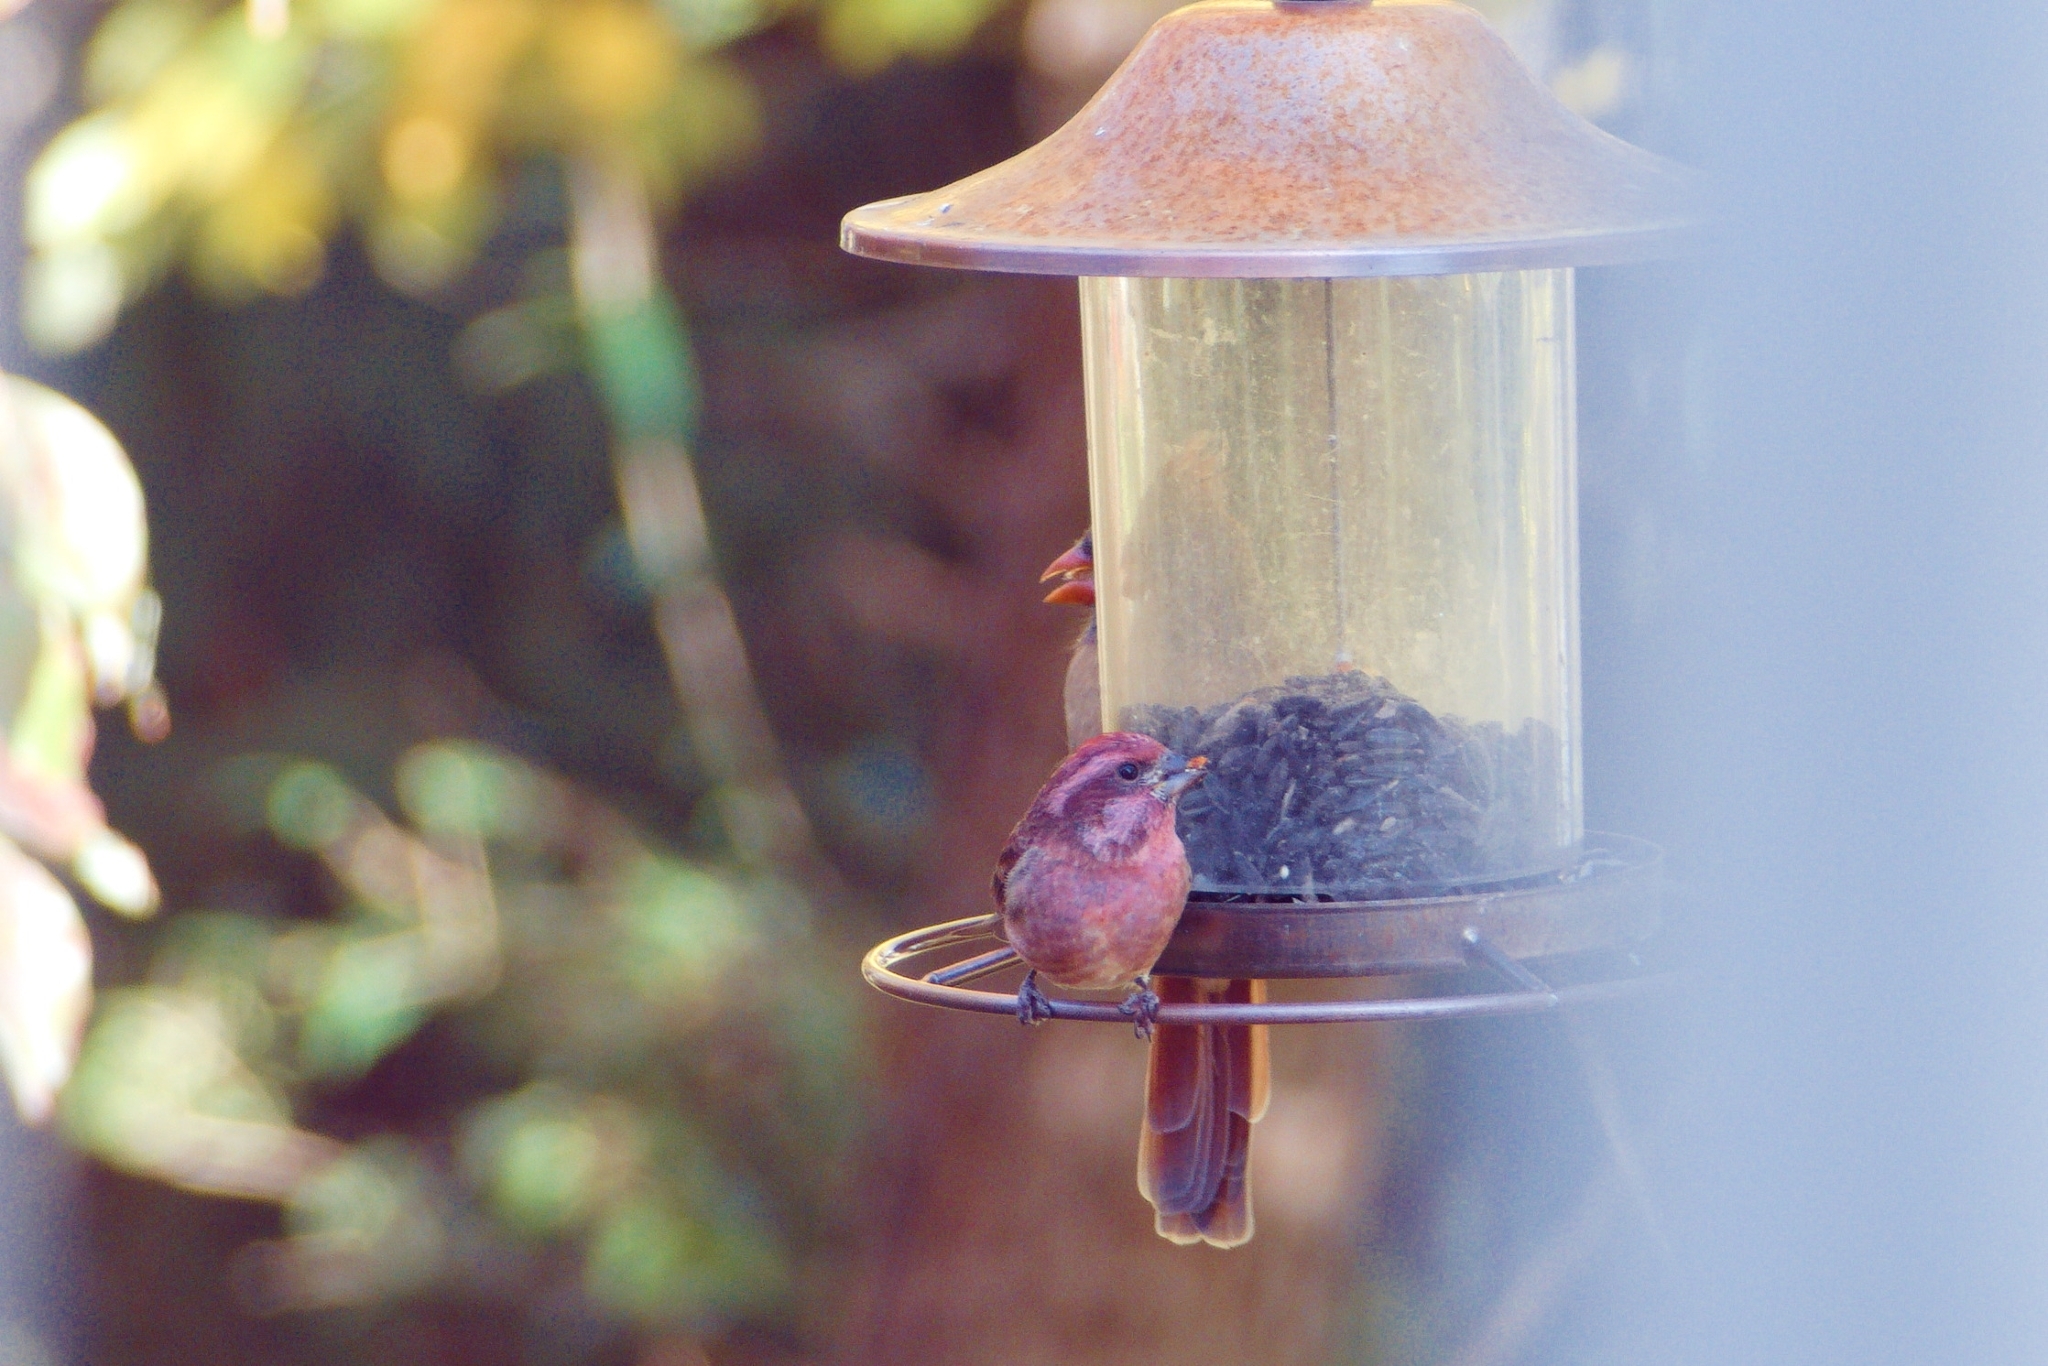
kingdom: Animalia
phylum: Chordata
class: Aves
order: Passeriformes
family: Fringillidae
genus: Haemorhous
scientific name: Haemorhous purpureus
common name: Purple finch
